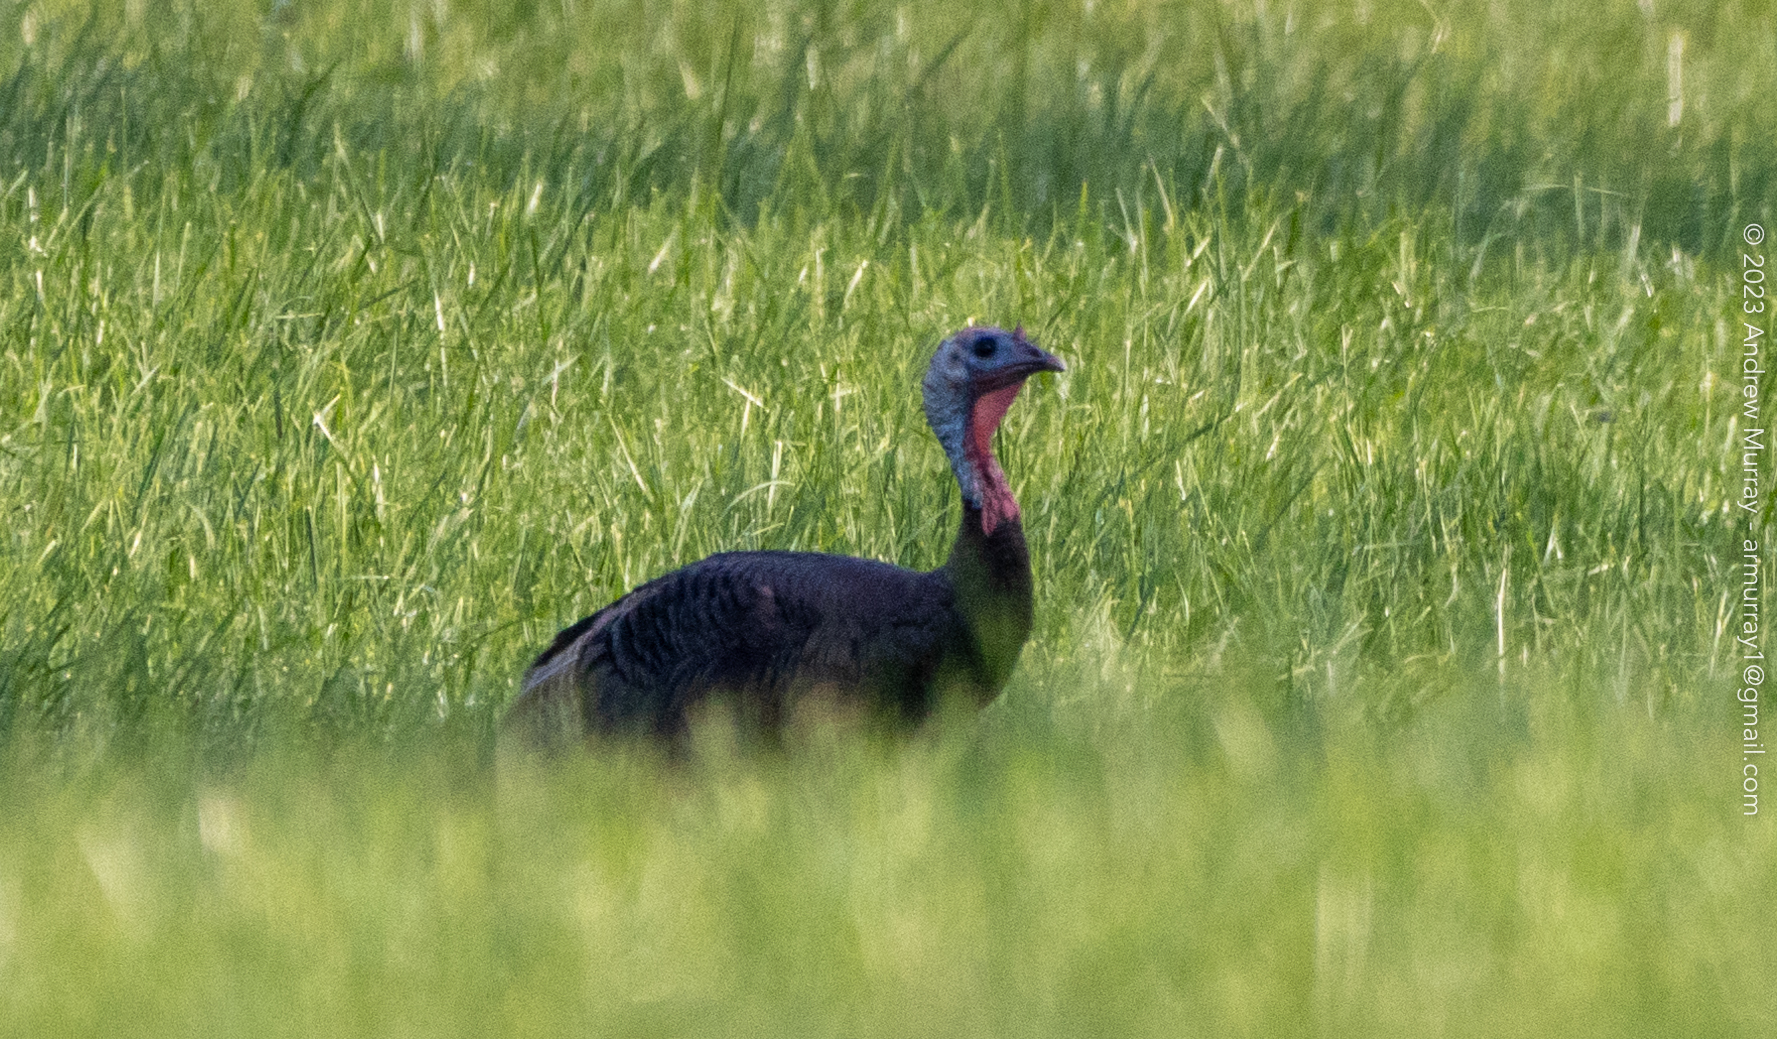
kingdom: Animalia
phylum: Chordata
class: Aves
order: Galliformes
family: Phasianidae
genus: Meleagris
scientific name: Meleagris gallopavo
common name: Wild turkey
